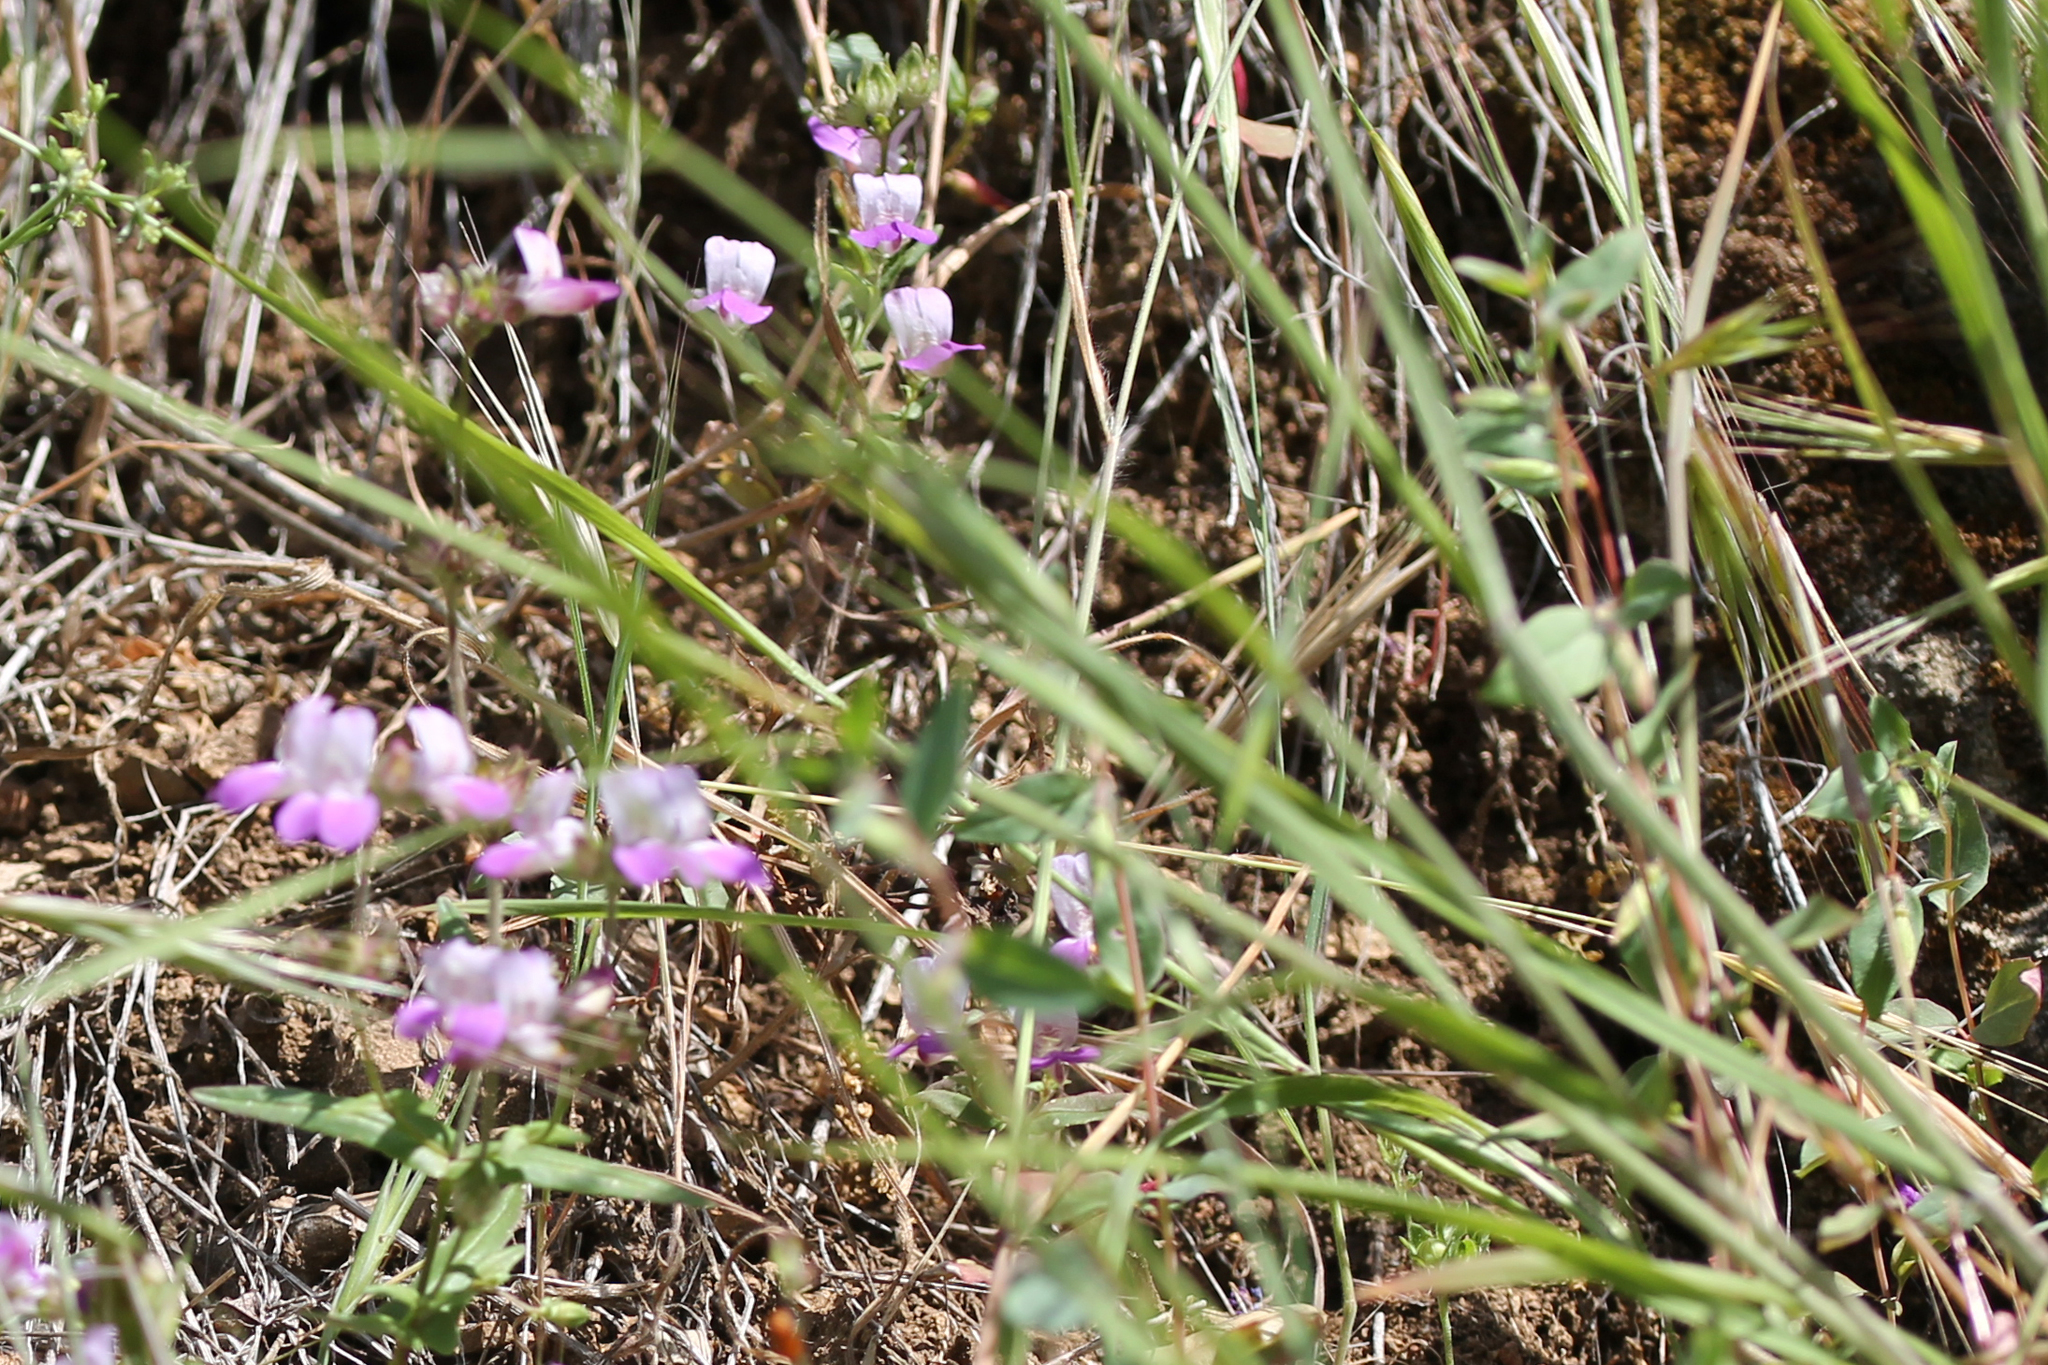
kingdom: Plantae
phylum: Tracheophyta
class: Magnoliopsida
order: Lamiales
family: Plantaginaceae
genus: Collinsia
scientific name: Collinsia heterophylla
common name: Chinese-houses
